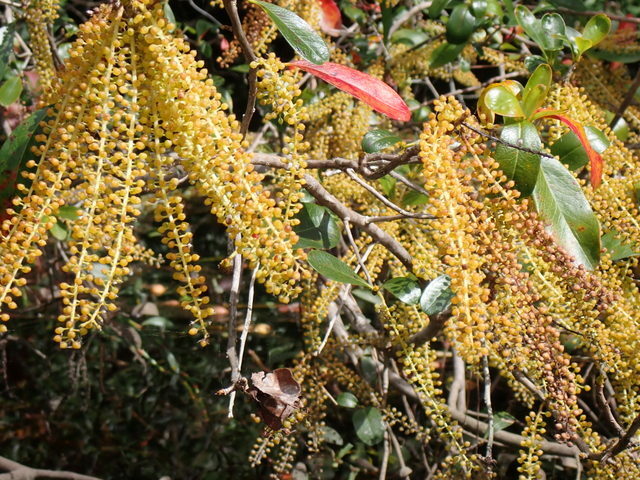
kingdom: Plantae
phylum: Tracheophyta
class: Magnoliopsida
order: Ericales
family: Cyrillaceae
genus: Cyrilla
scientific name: Cyrilla racemiflora
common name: Black titi
